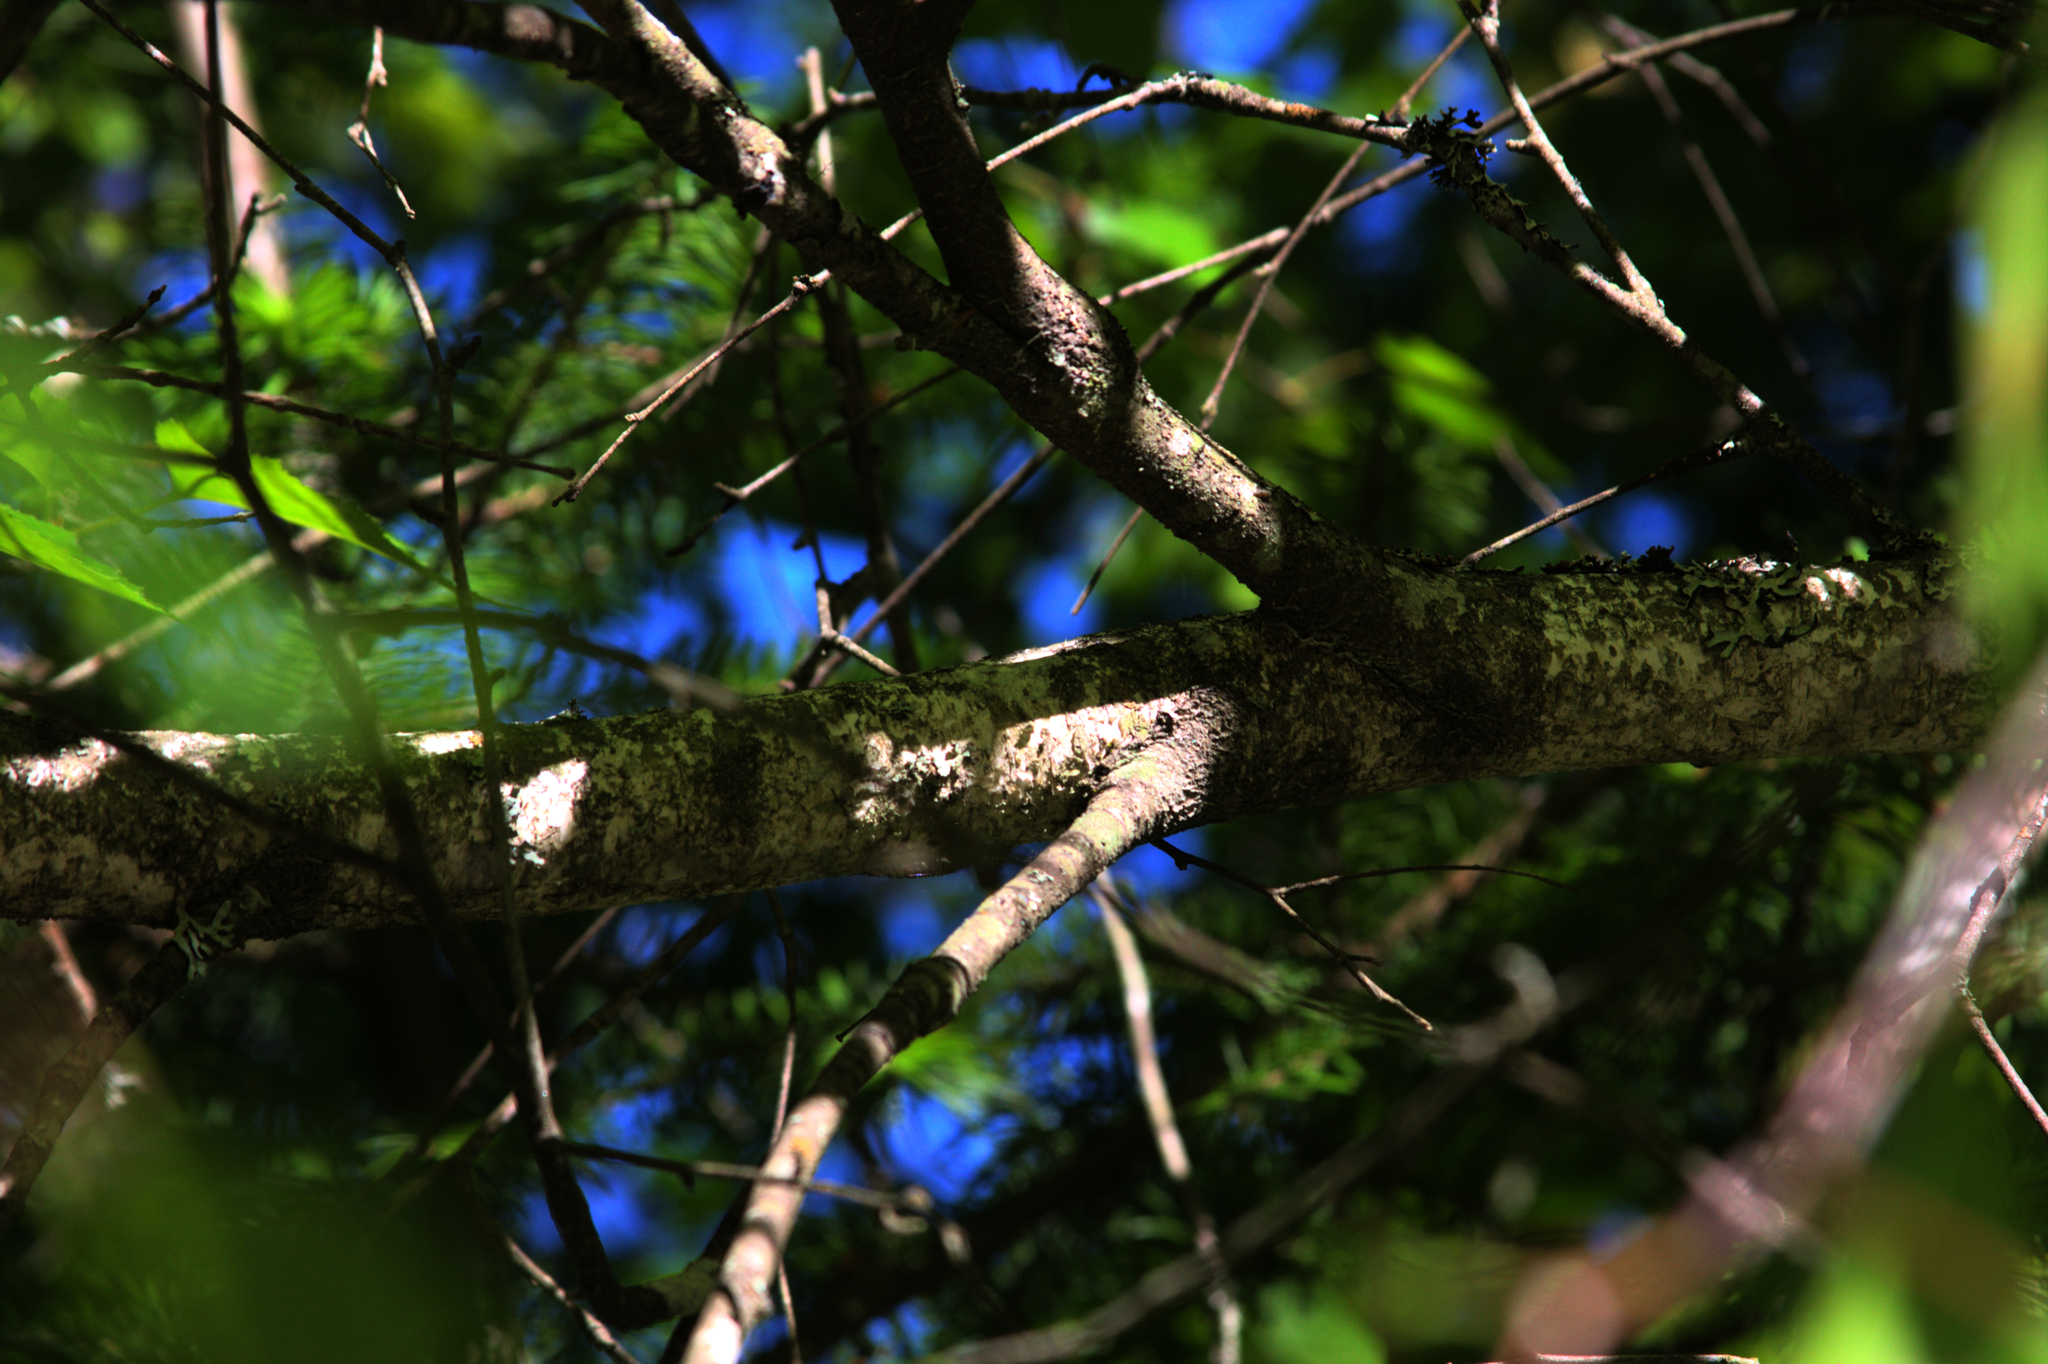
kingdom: Plantae
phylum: Tracheophyta
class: Magnoliopsida
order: Fagales
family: Betulaceae
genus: Betula
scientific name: Betula populifolia
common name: Fire birch
